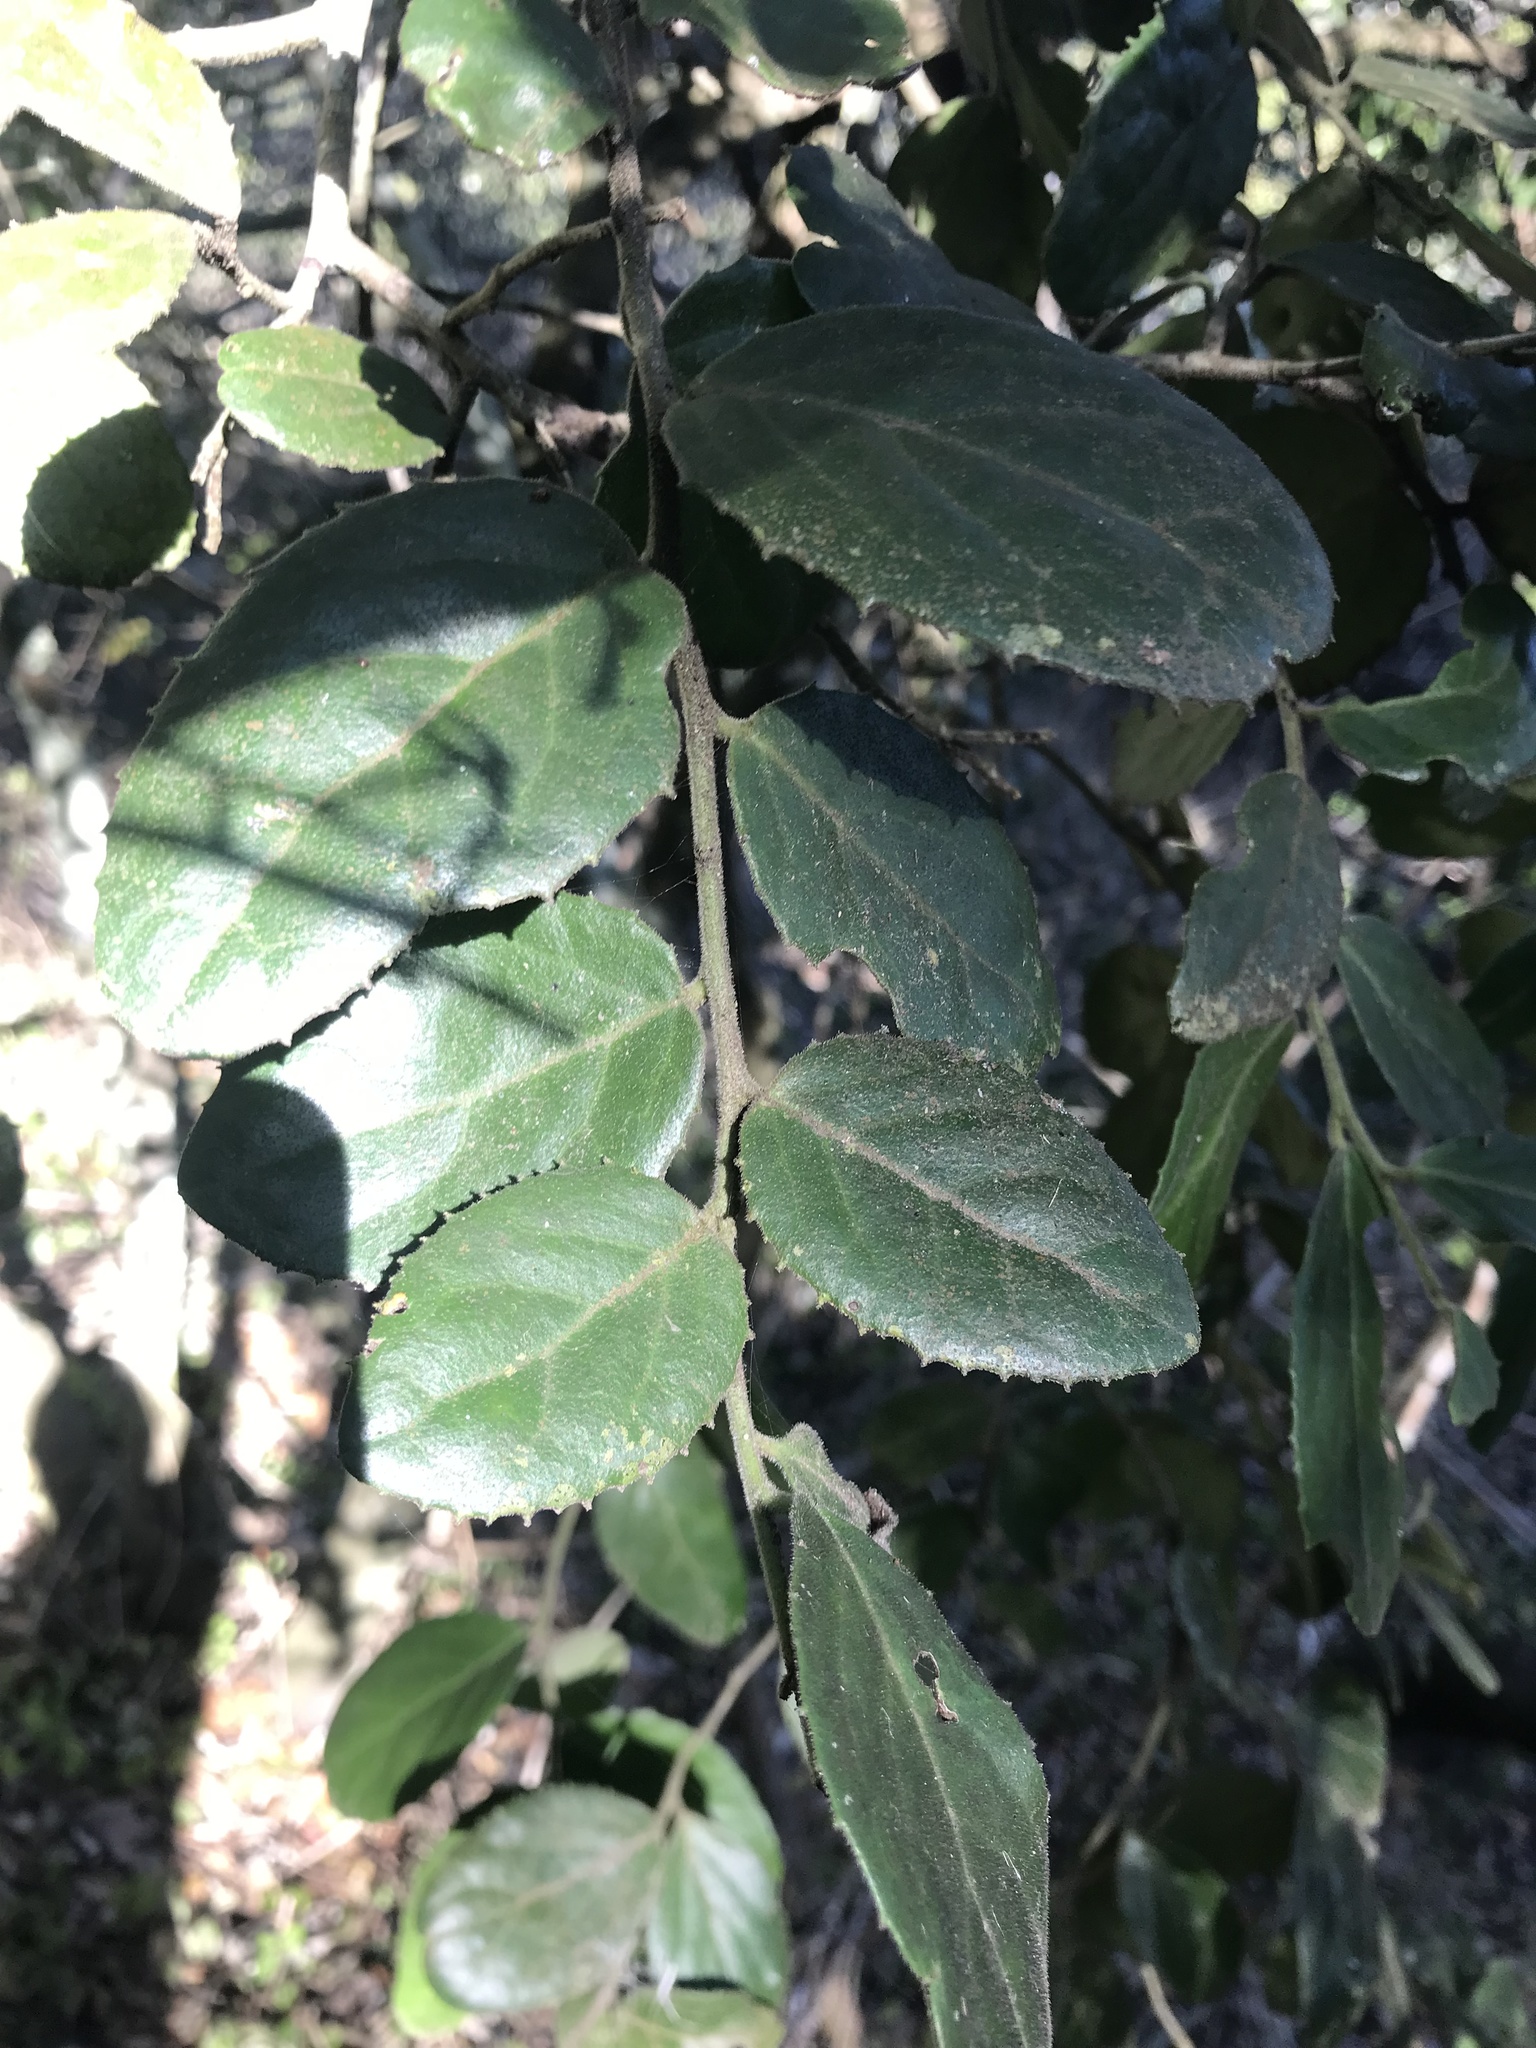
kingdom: Plantae
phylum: Tracheophyta
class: Magnoliopsida
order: Celastrales
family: Celastraceae
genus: Mystroxylon
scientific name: Mystroxylon aethiopicum
